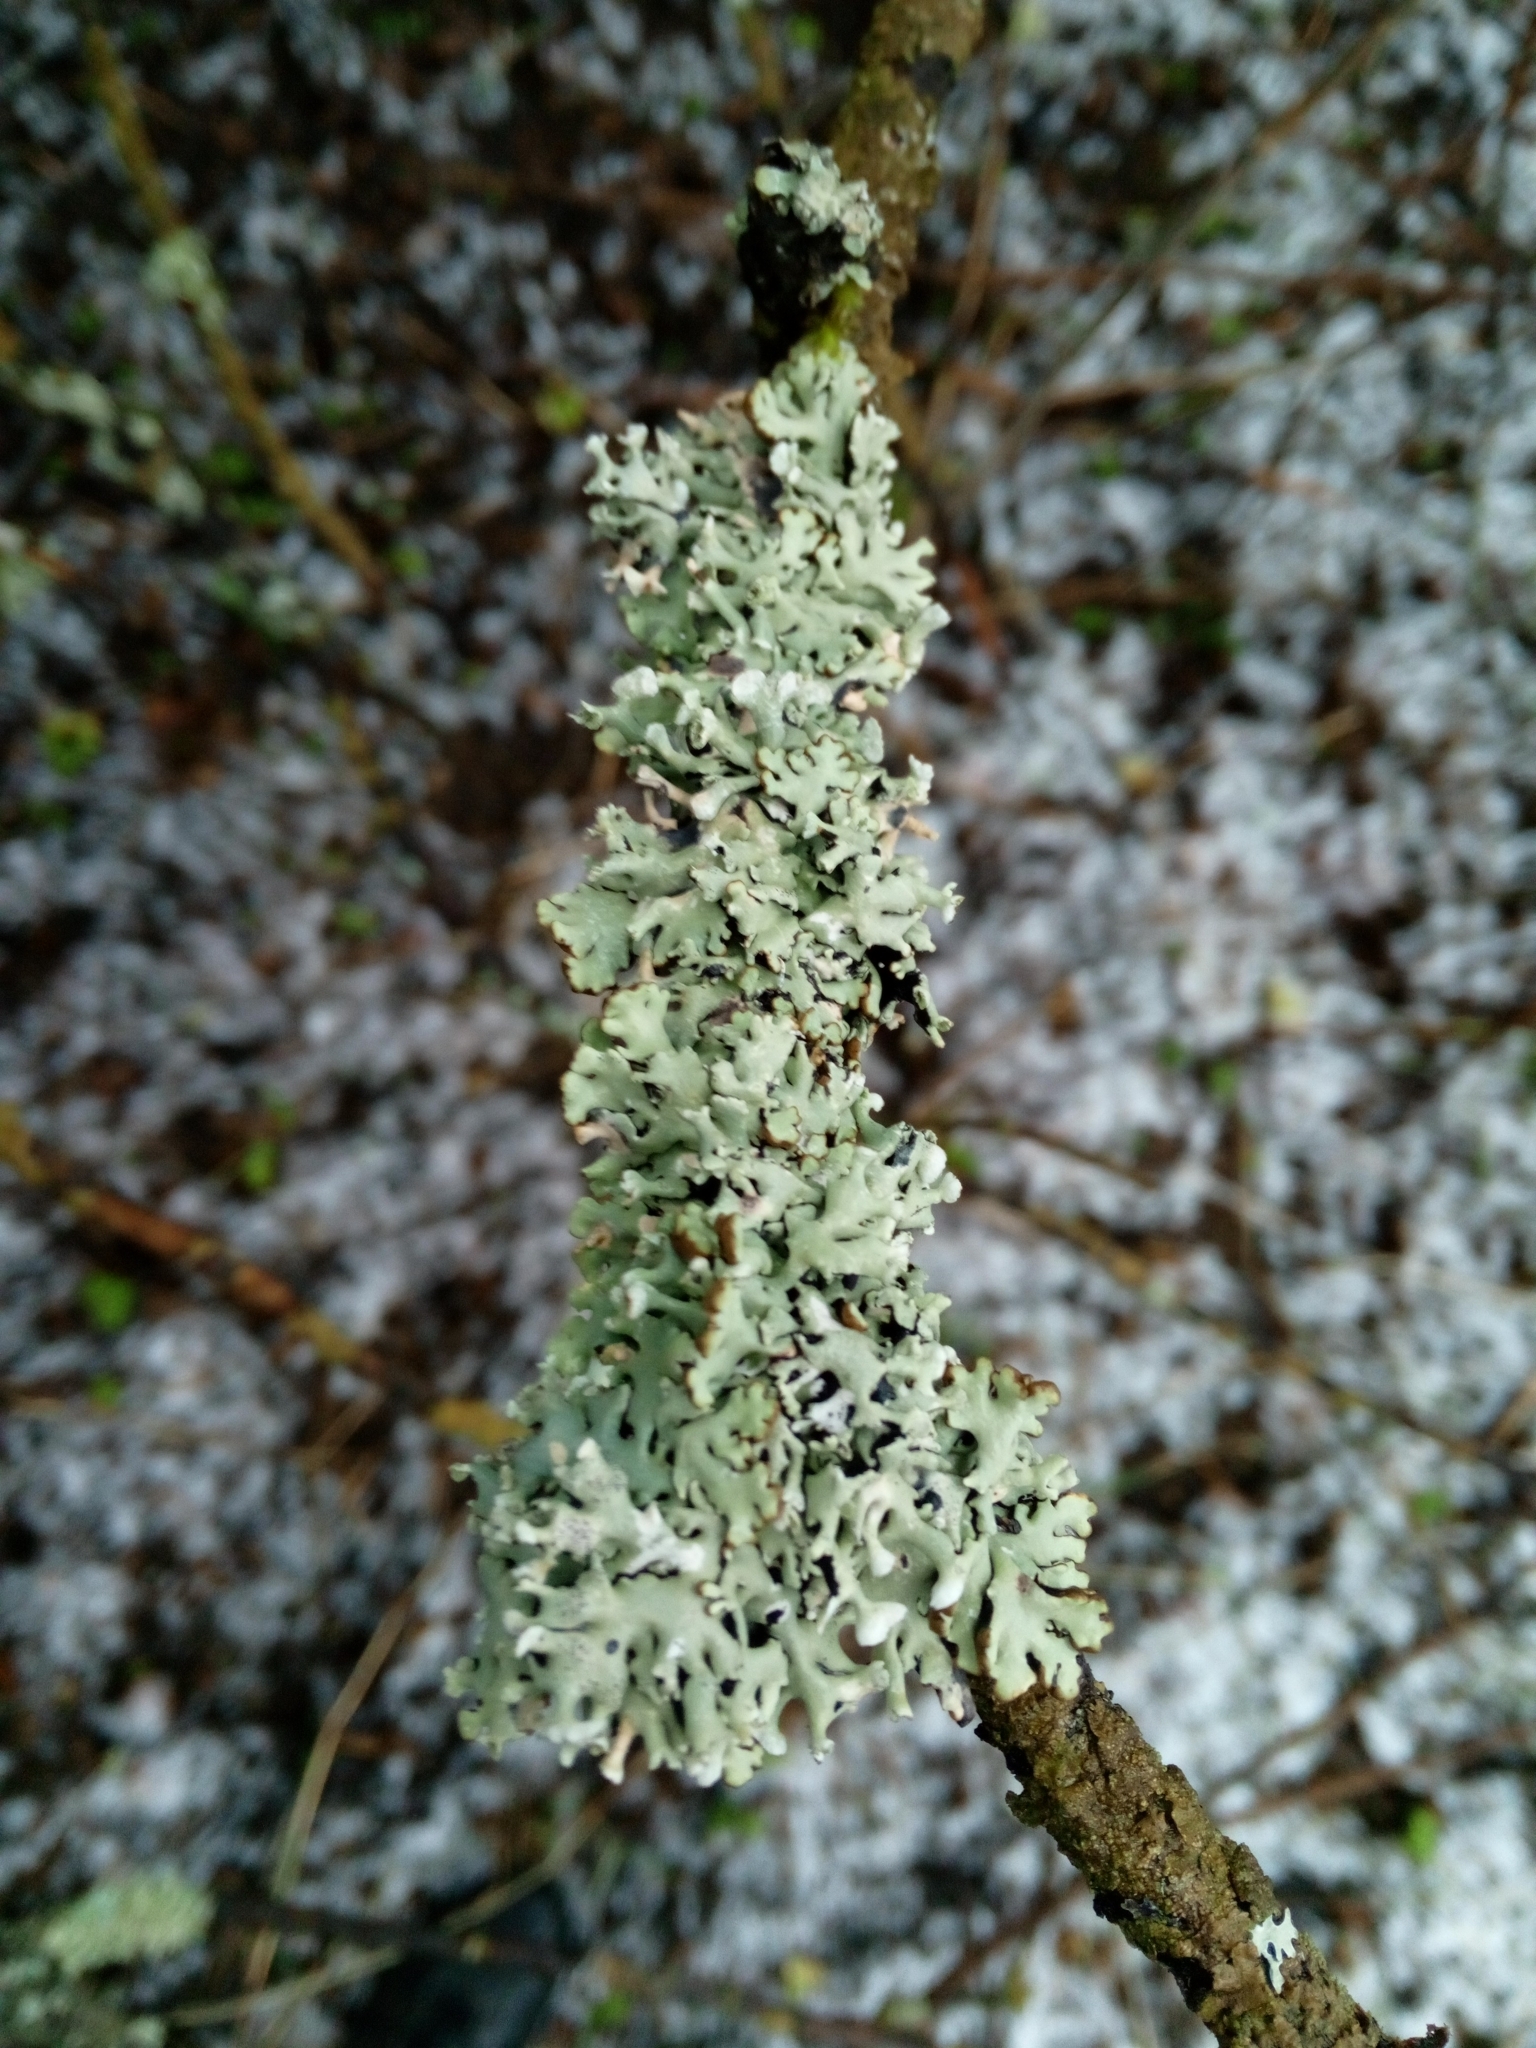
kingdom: Fungi
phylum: Ascomycota
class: Lecanoromycetes
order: Lecanorales
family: Parmeliaceae
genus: Hypogymnia
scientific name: Hypogymnia physodes
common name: Dark crottle
